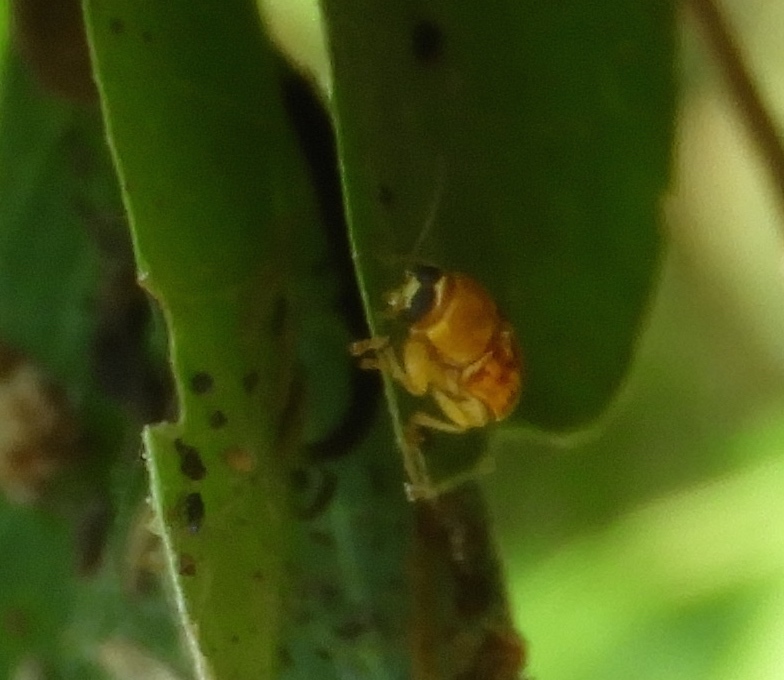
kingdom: Animalia
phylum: Arthropoda
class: Insecta
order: Coleoptera
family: Chrysomelidae
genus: Griburius
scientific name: Griburius puncturatus
